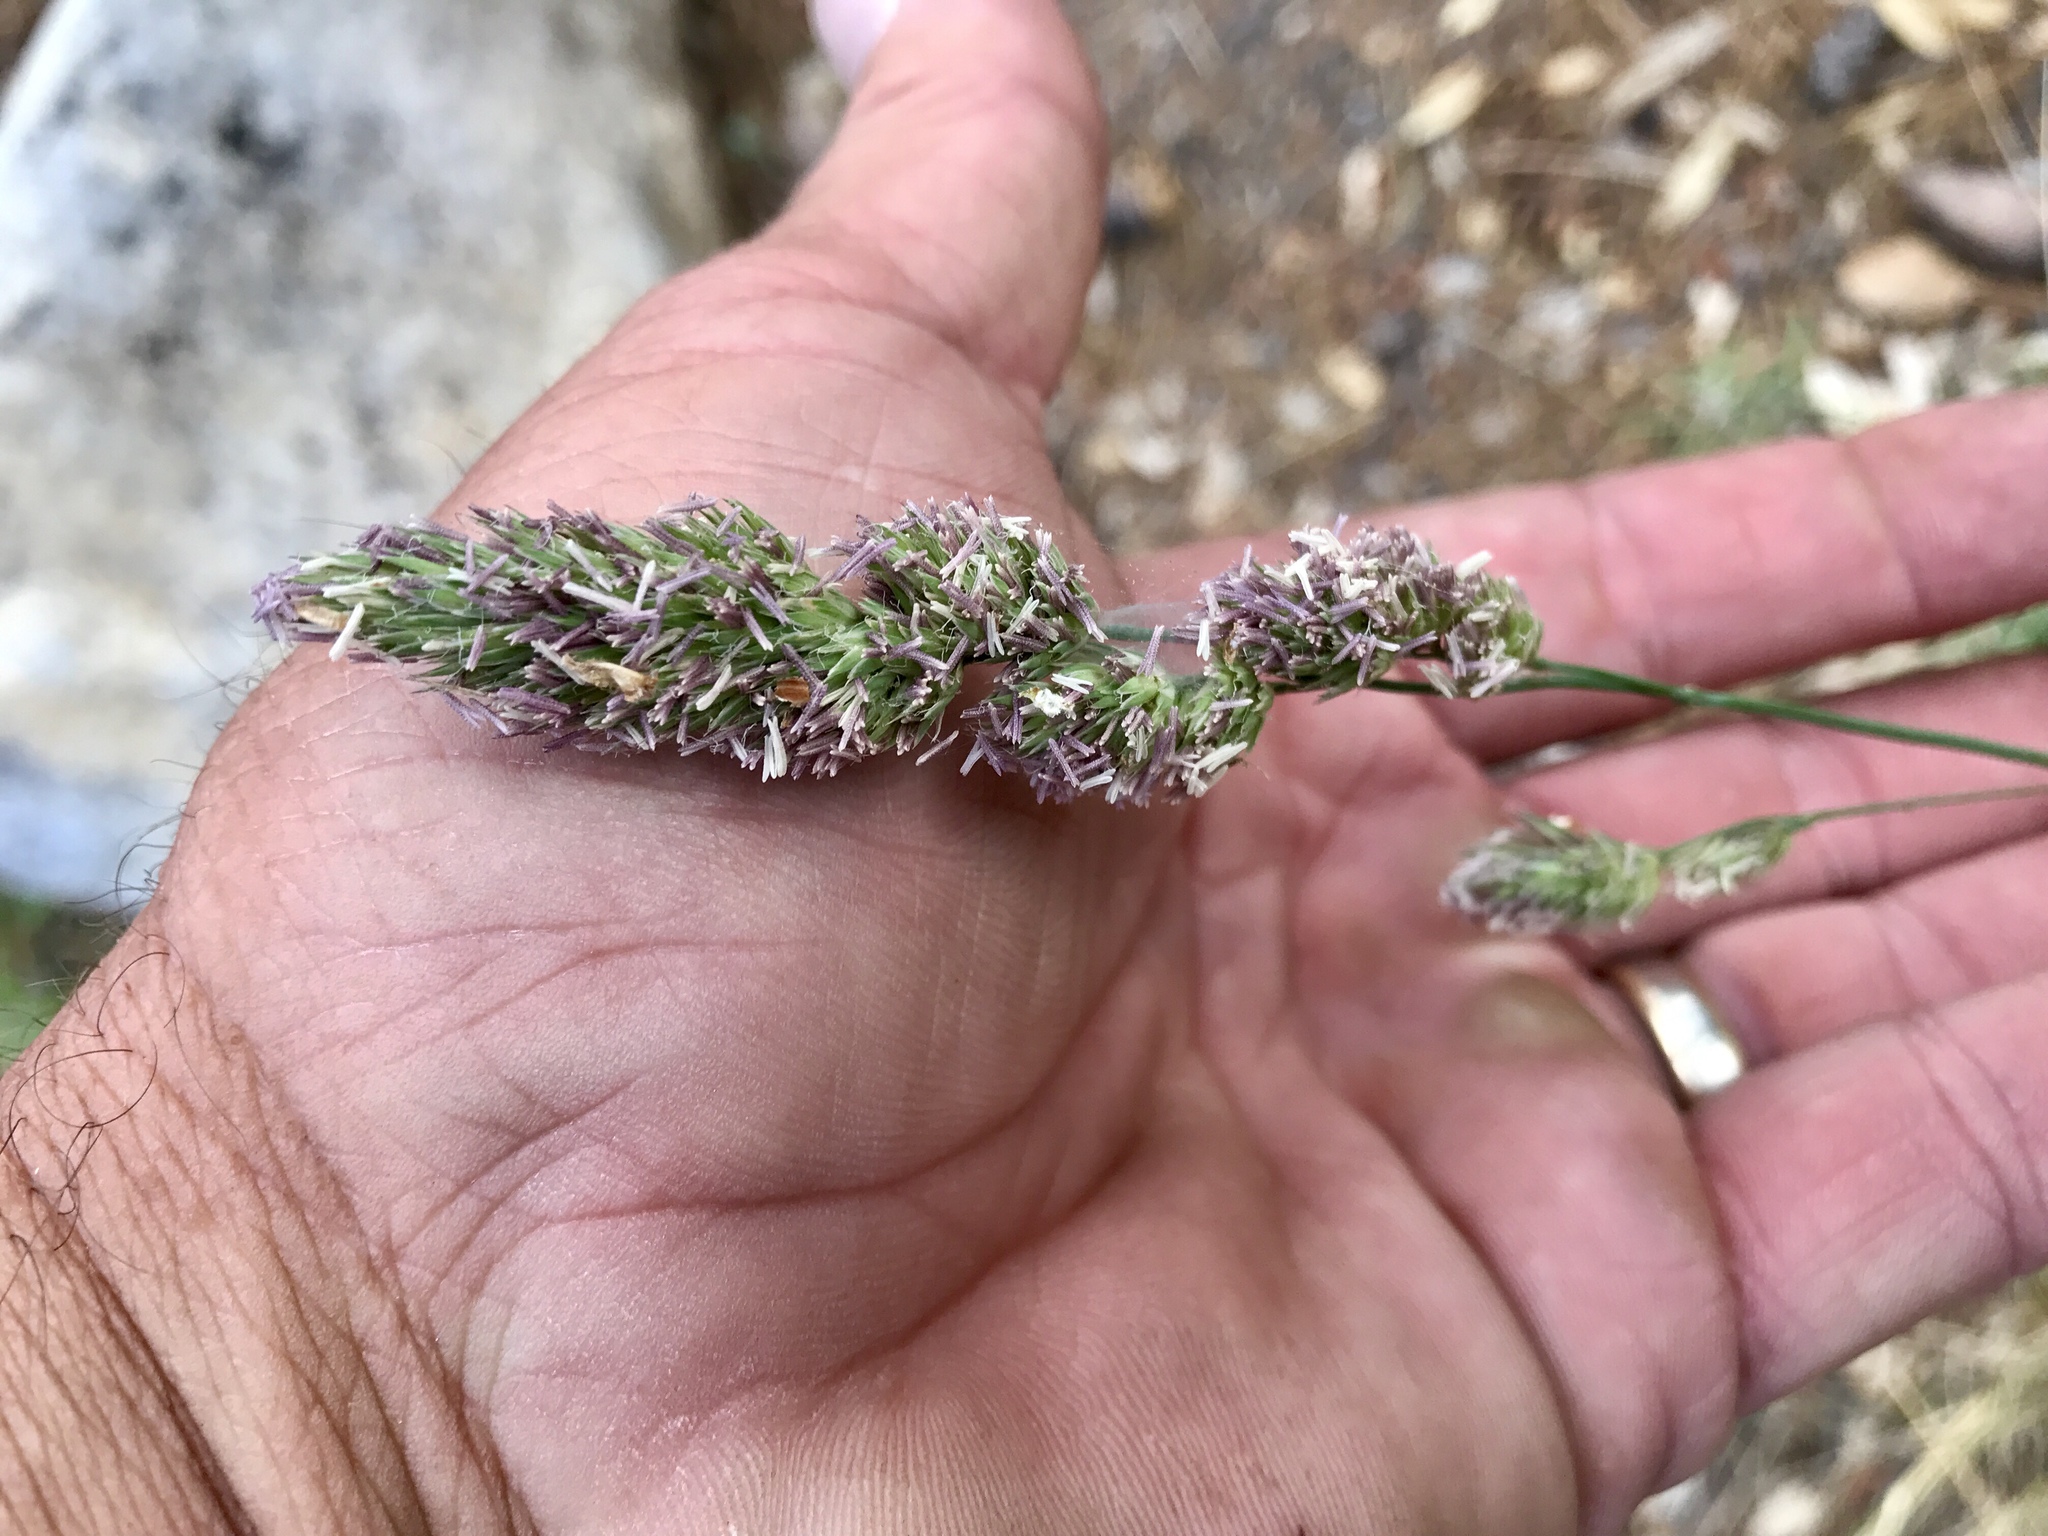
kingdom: Plantae
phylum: Tracheophyta
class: Liliopsida
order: Poales
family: Poaceae
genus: Dactylis
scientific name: Dactylis glomerata
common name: Orchardgrass
